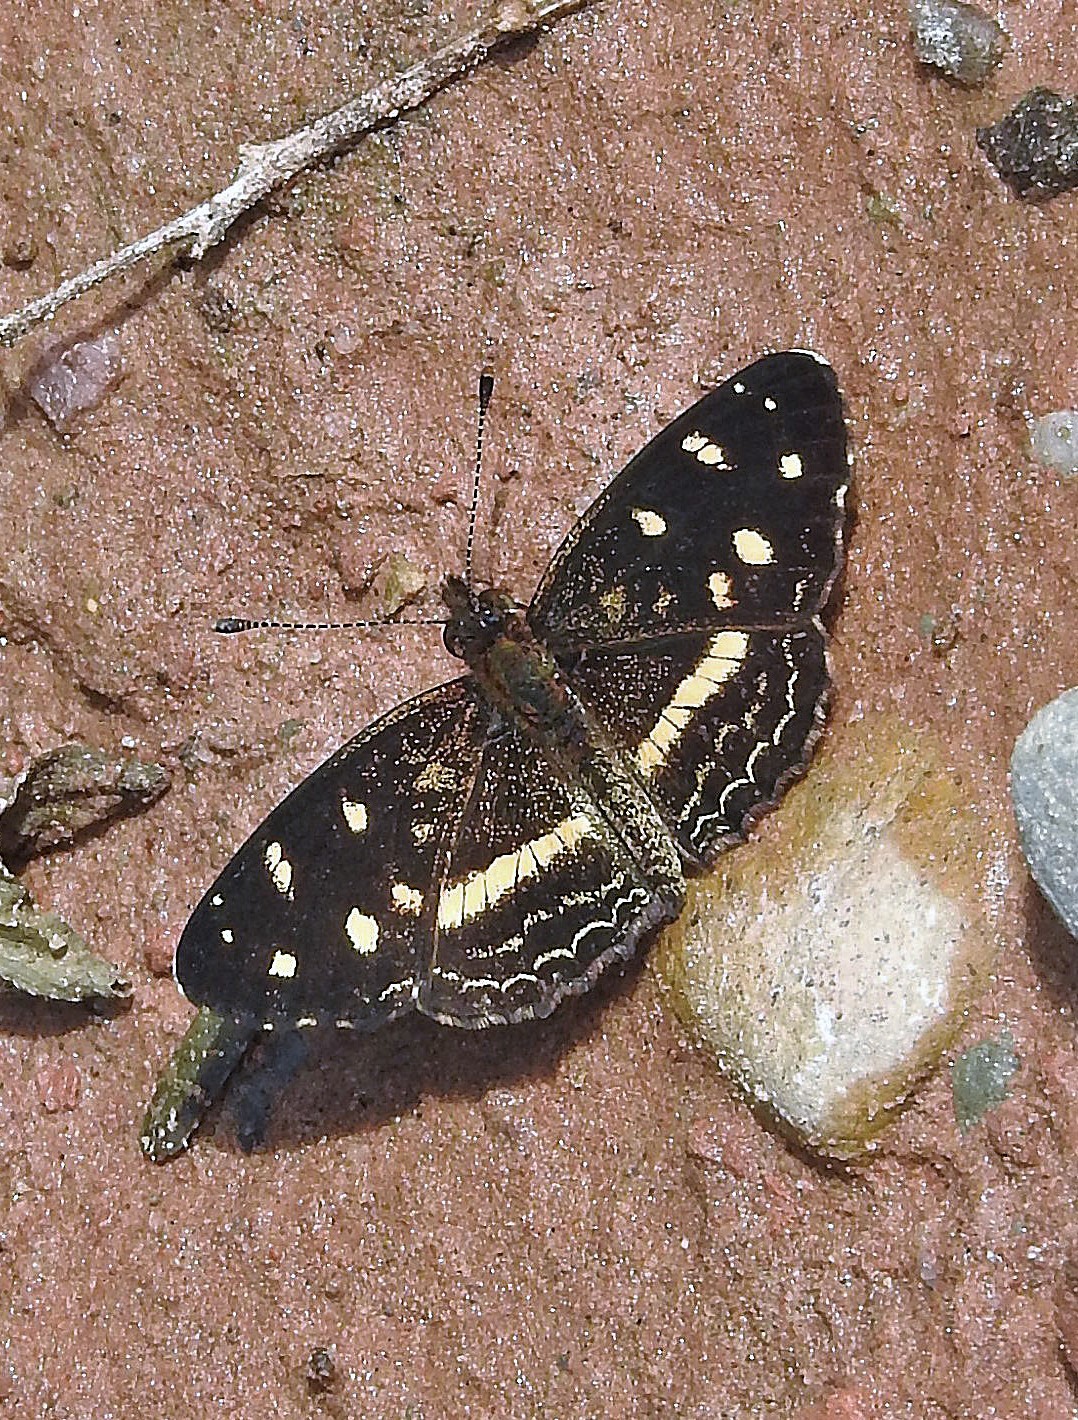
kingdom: Animalia
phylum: Arthropoda
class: Insecta
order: Lepidoptera
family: Nymphalidae
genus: Dagon
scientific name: Dagon catula
